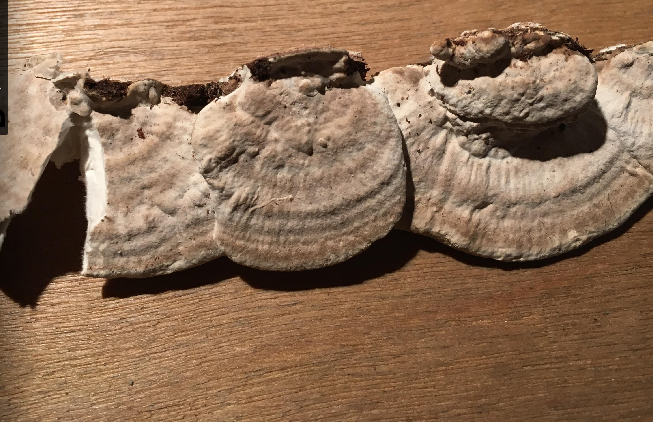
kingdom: Fungi
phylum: Basidiomycota
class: Agaricomycetes
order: Polyporales
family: Polyporaceae
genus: Trametes
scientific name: Trametes lactinea
